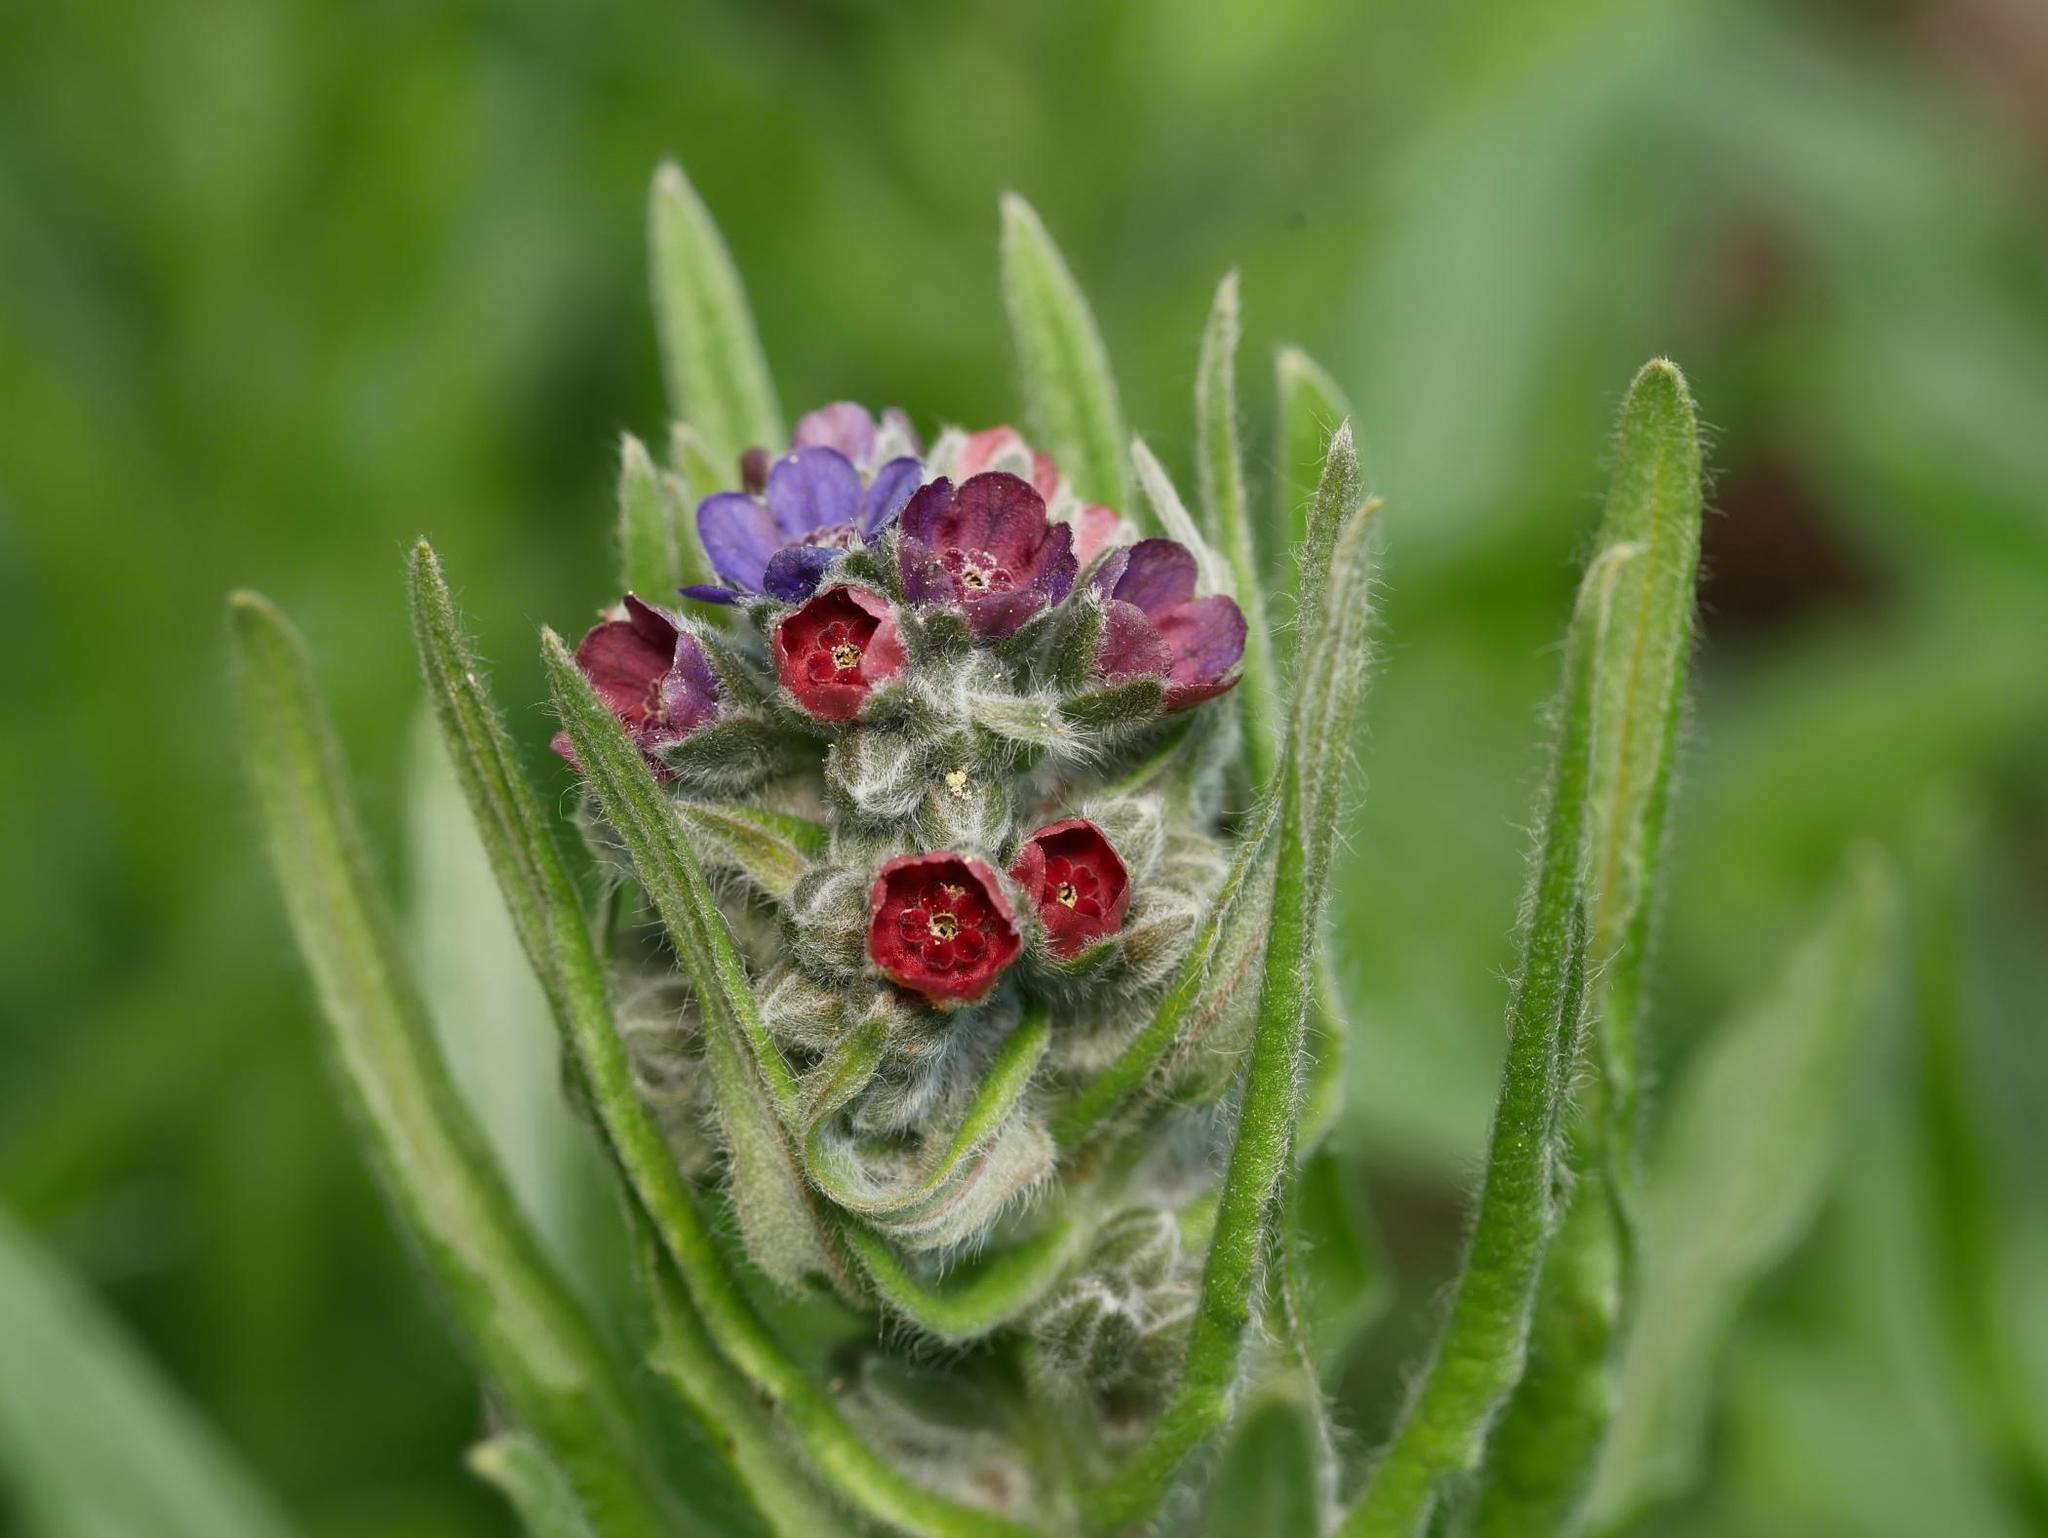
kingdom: Plantae
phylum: Tracheophyta
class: Magnoliopsida
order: Boraginales
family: Boraginaceae
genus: Cynoglossum
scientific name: Cynoglossum officinale
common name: Hound's-tongue
